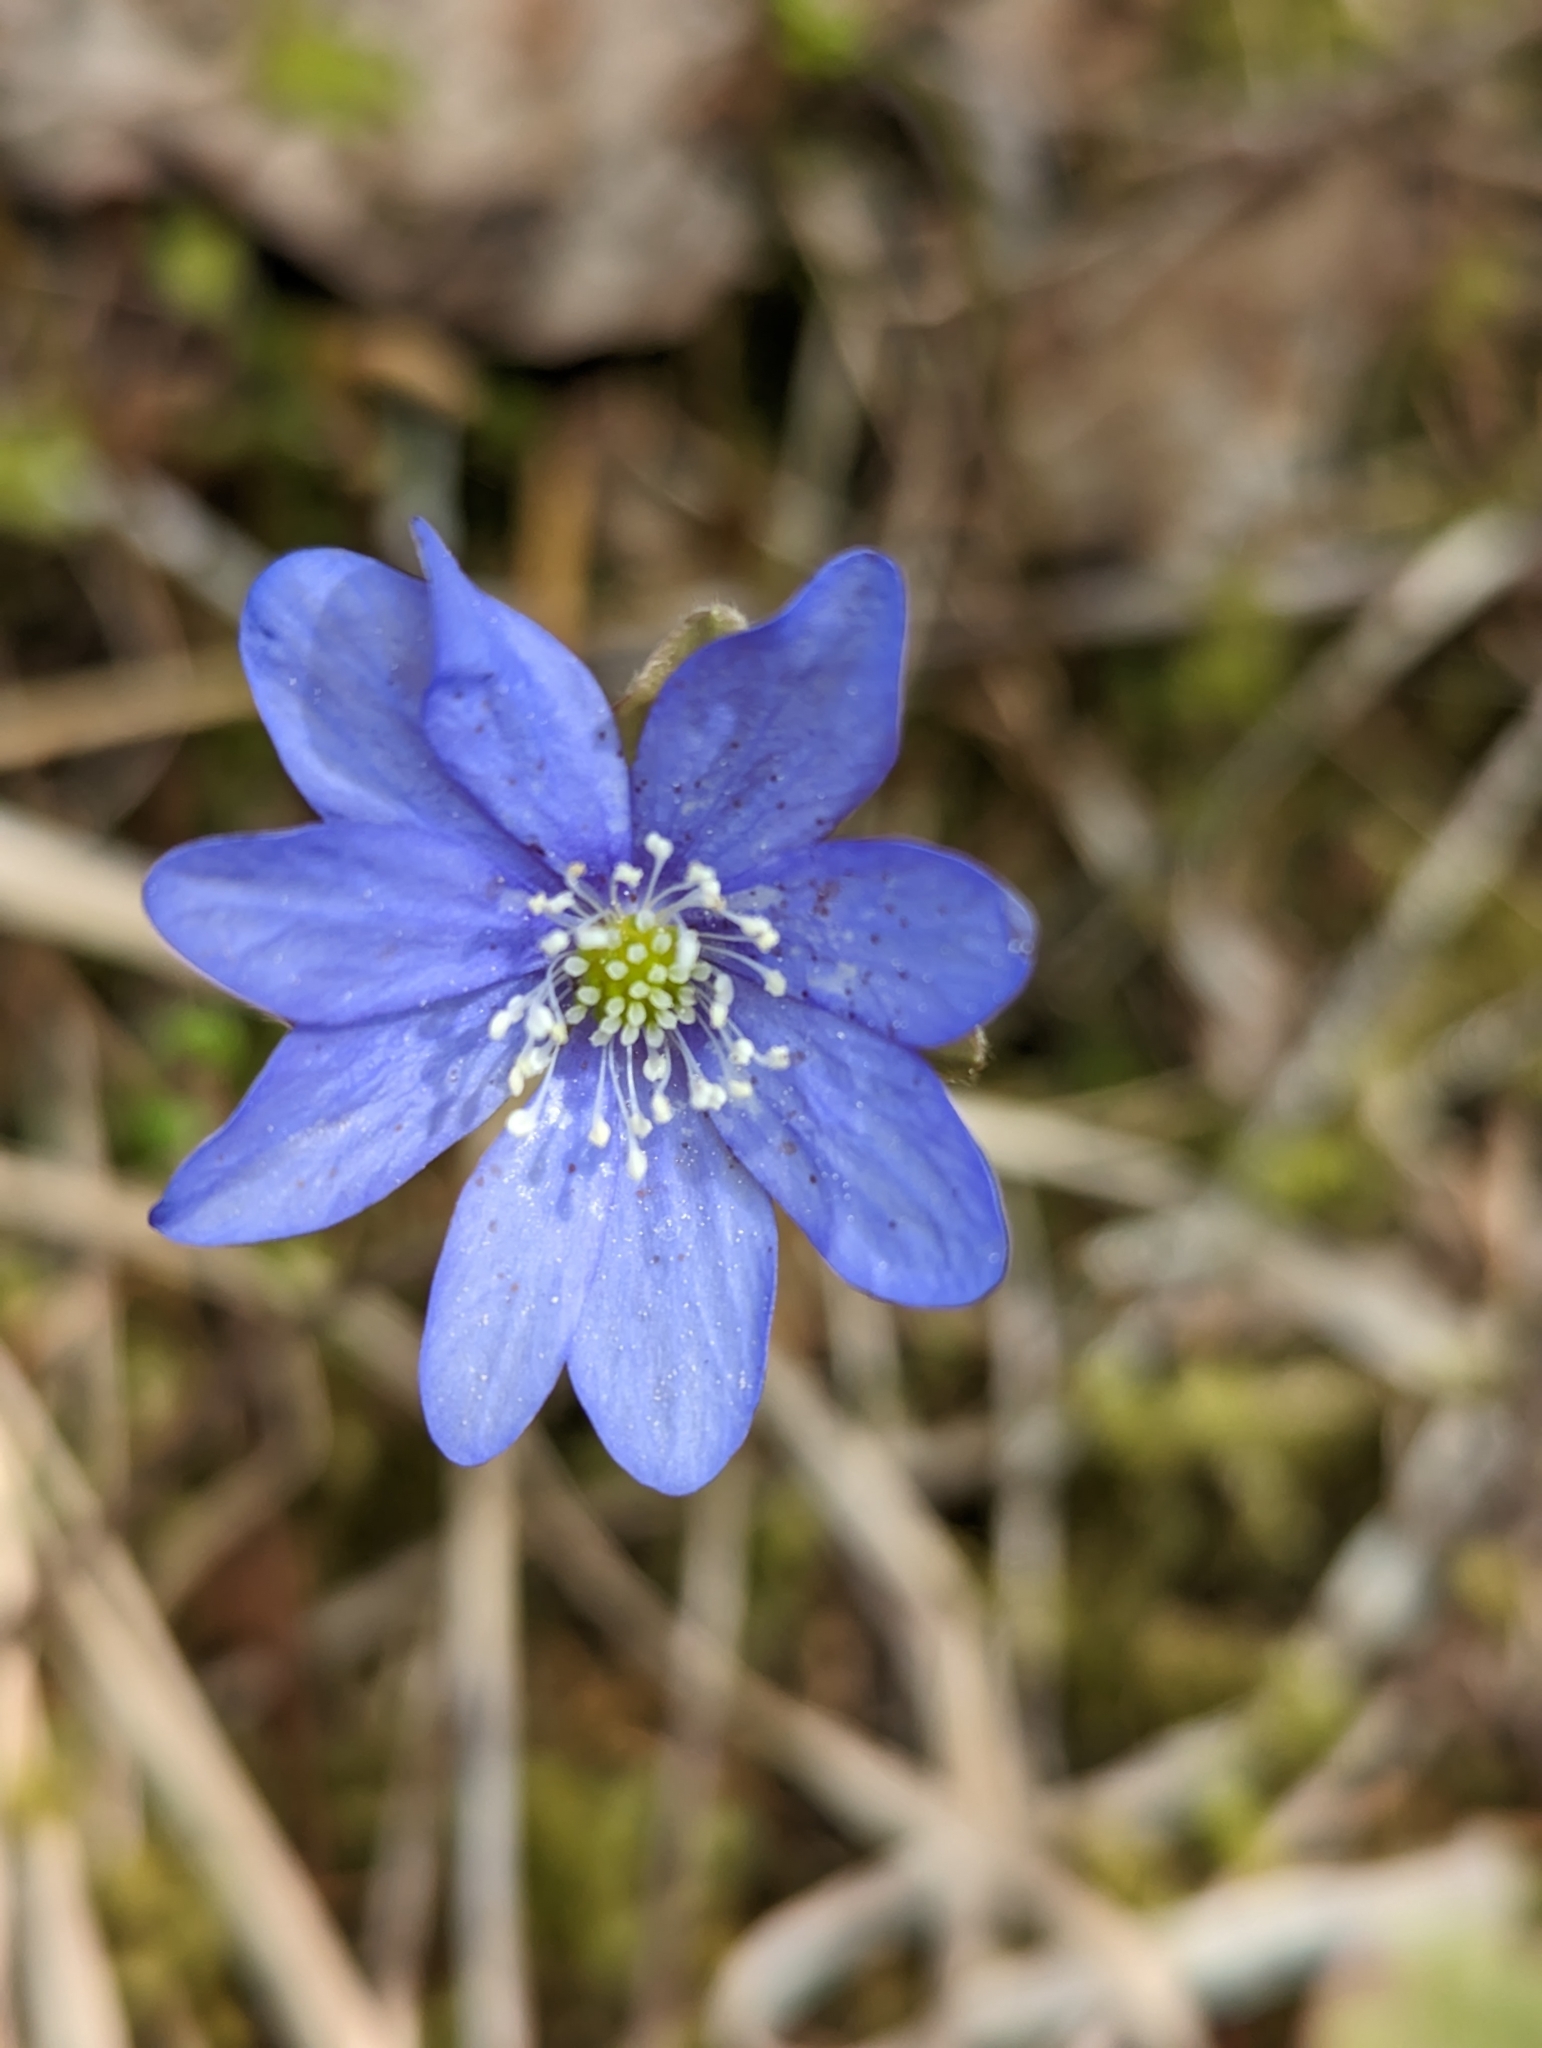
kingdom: Plantae
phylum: Tracheophyta
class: Magnoliopsida
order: Ranunculales
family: Ranunculaceae
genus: Hepatica
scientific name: Hepatica nobilis
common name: Liverleaf
